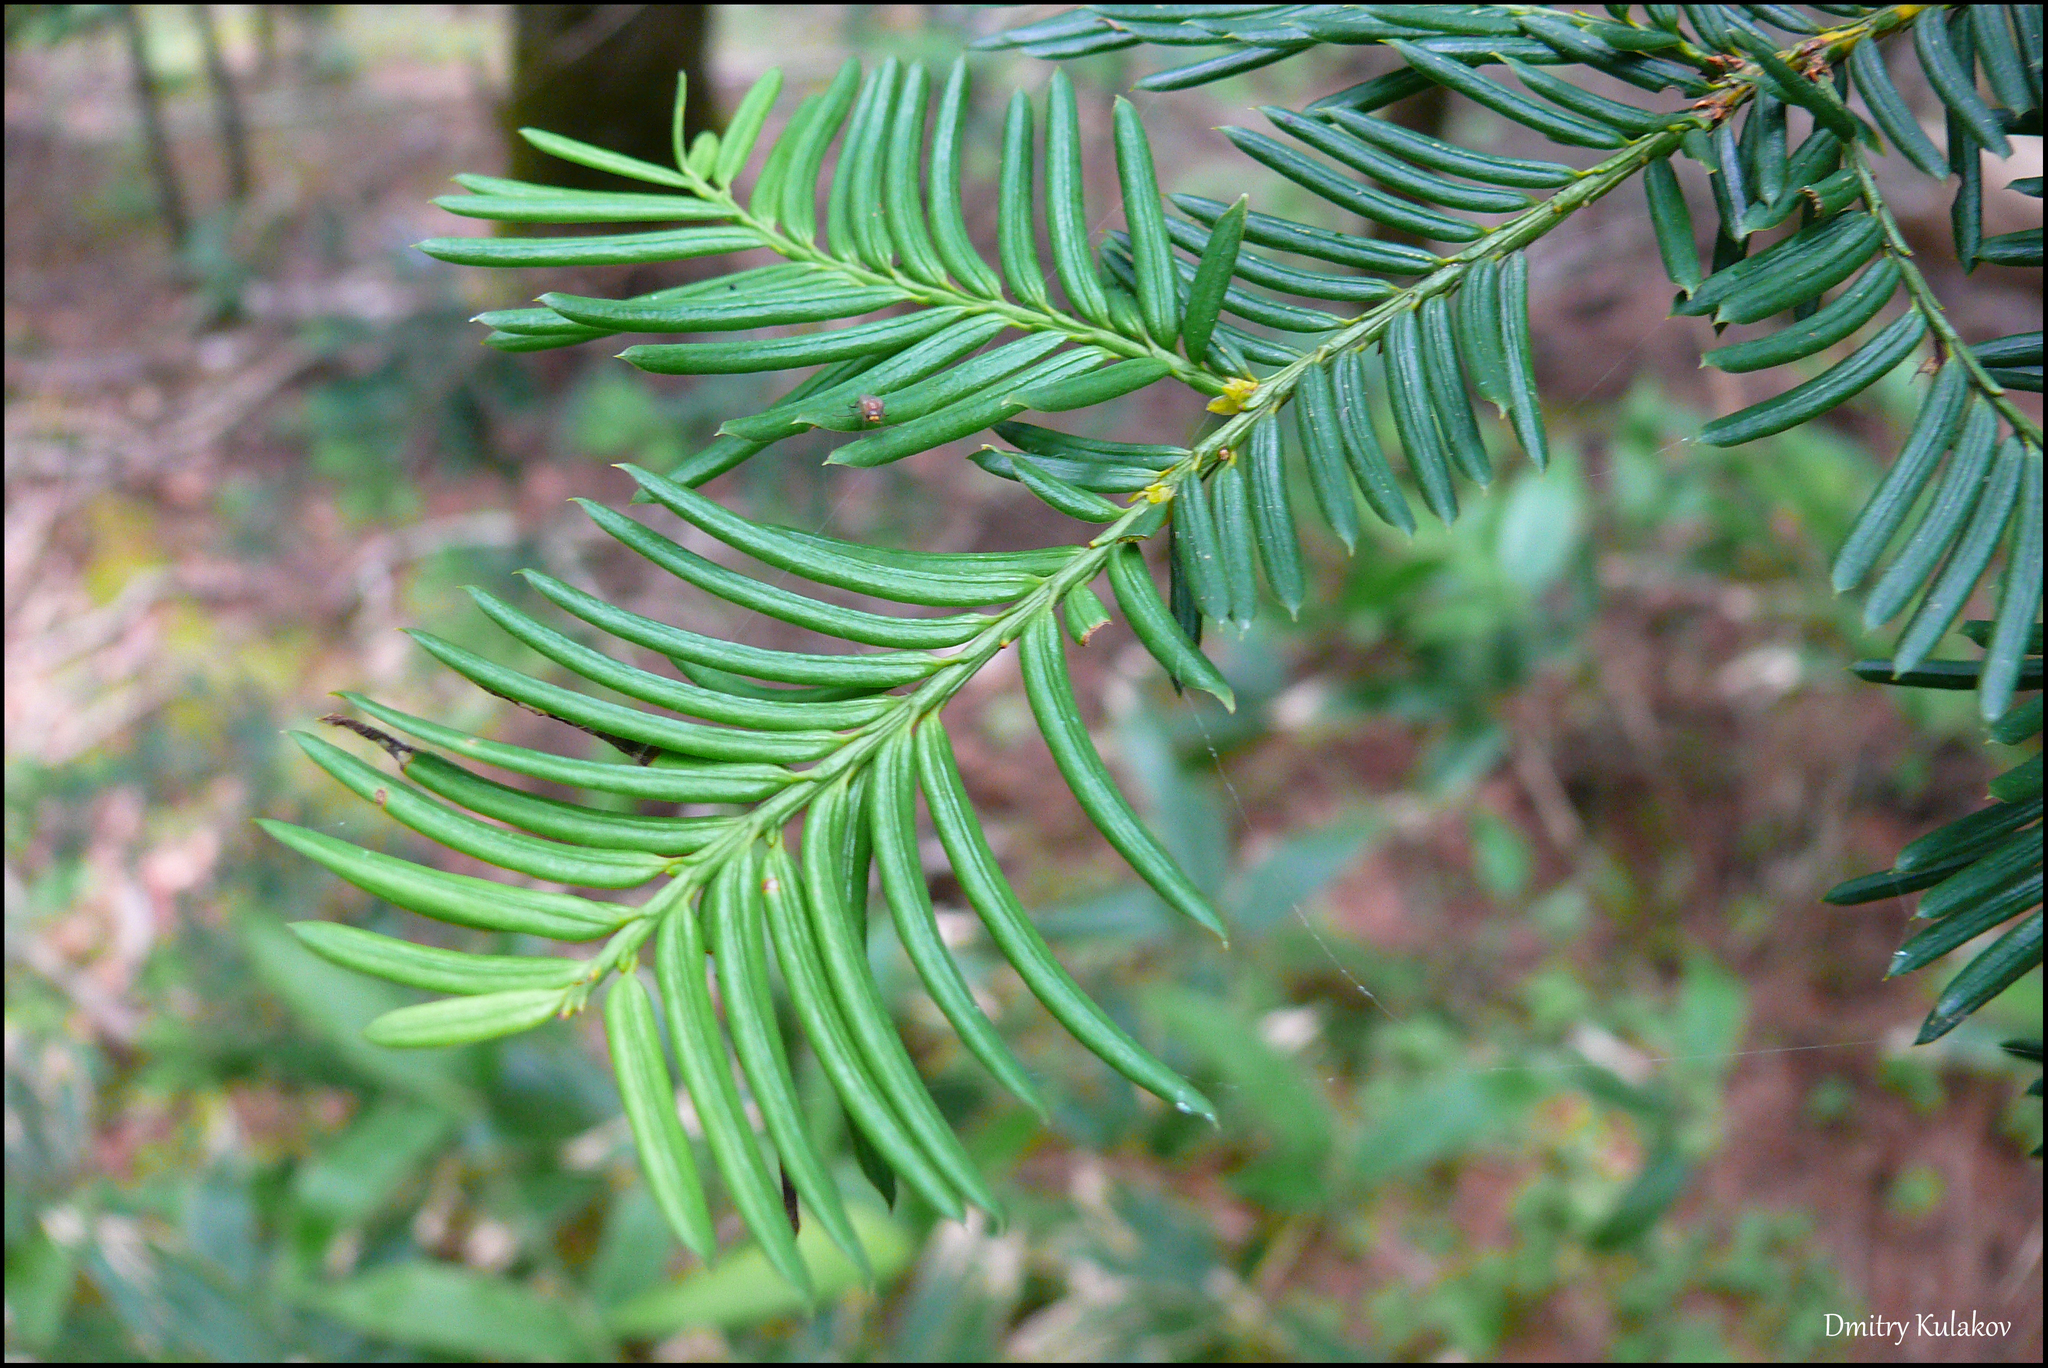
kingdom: Plantae
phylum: Tracheophyta
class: Pinopsida
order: Pinales
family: Taxaceae
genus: Taxus
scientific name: Taxus cuspidata
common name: Japanese yew
